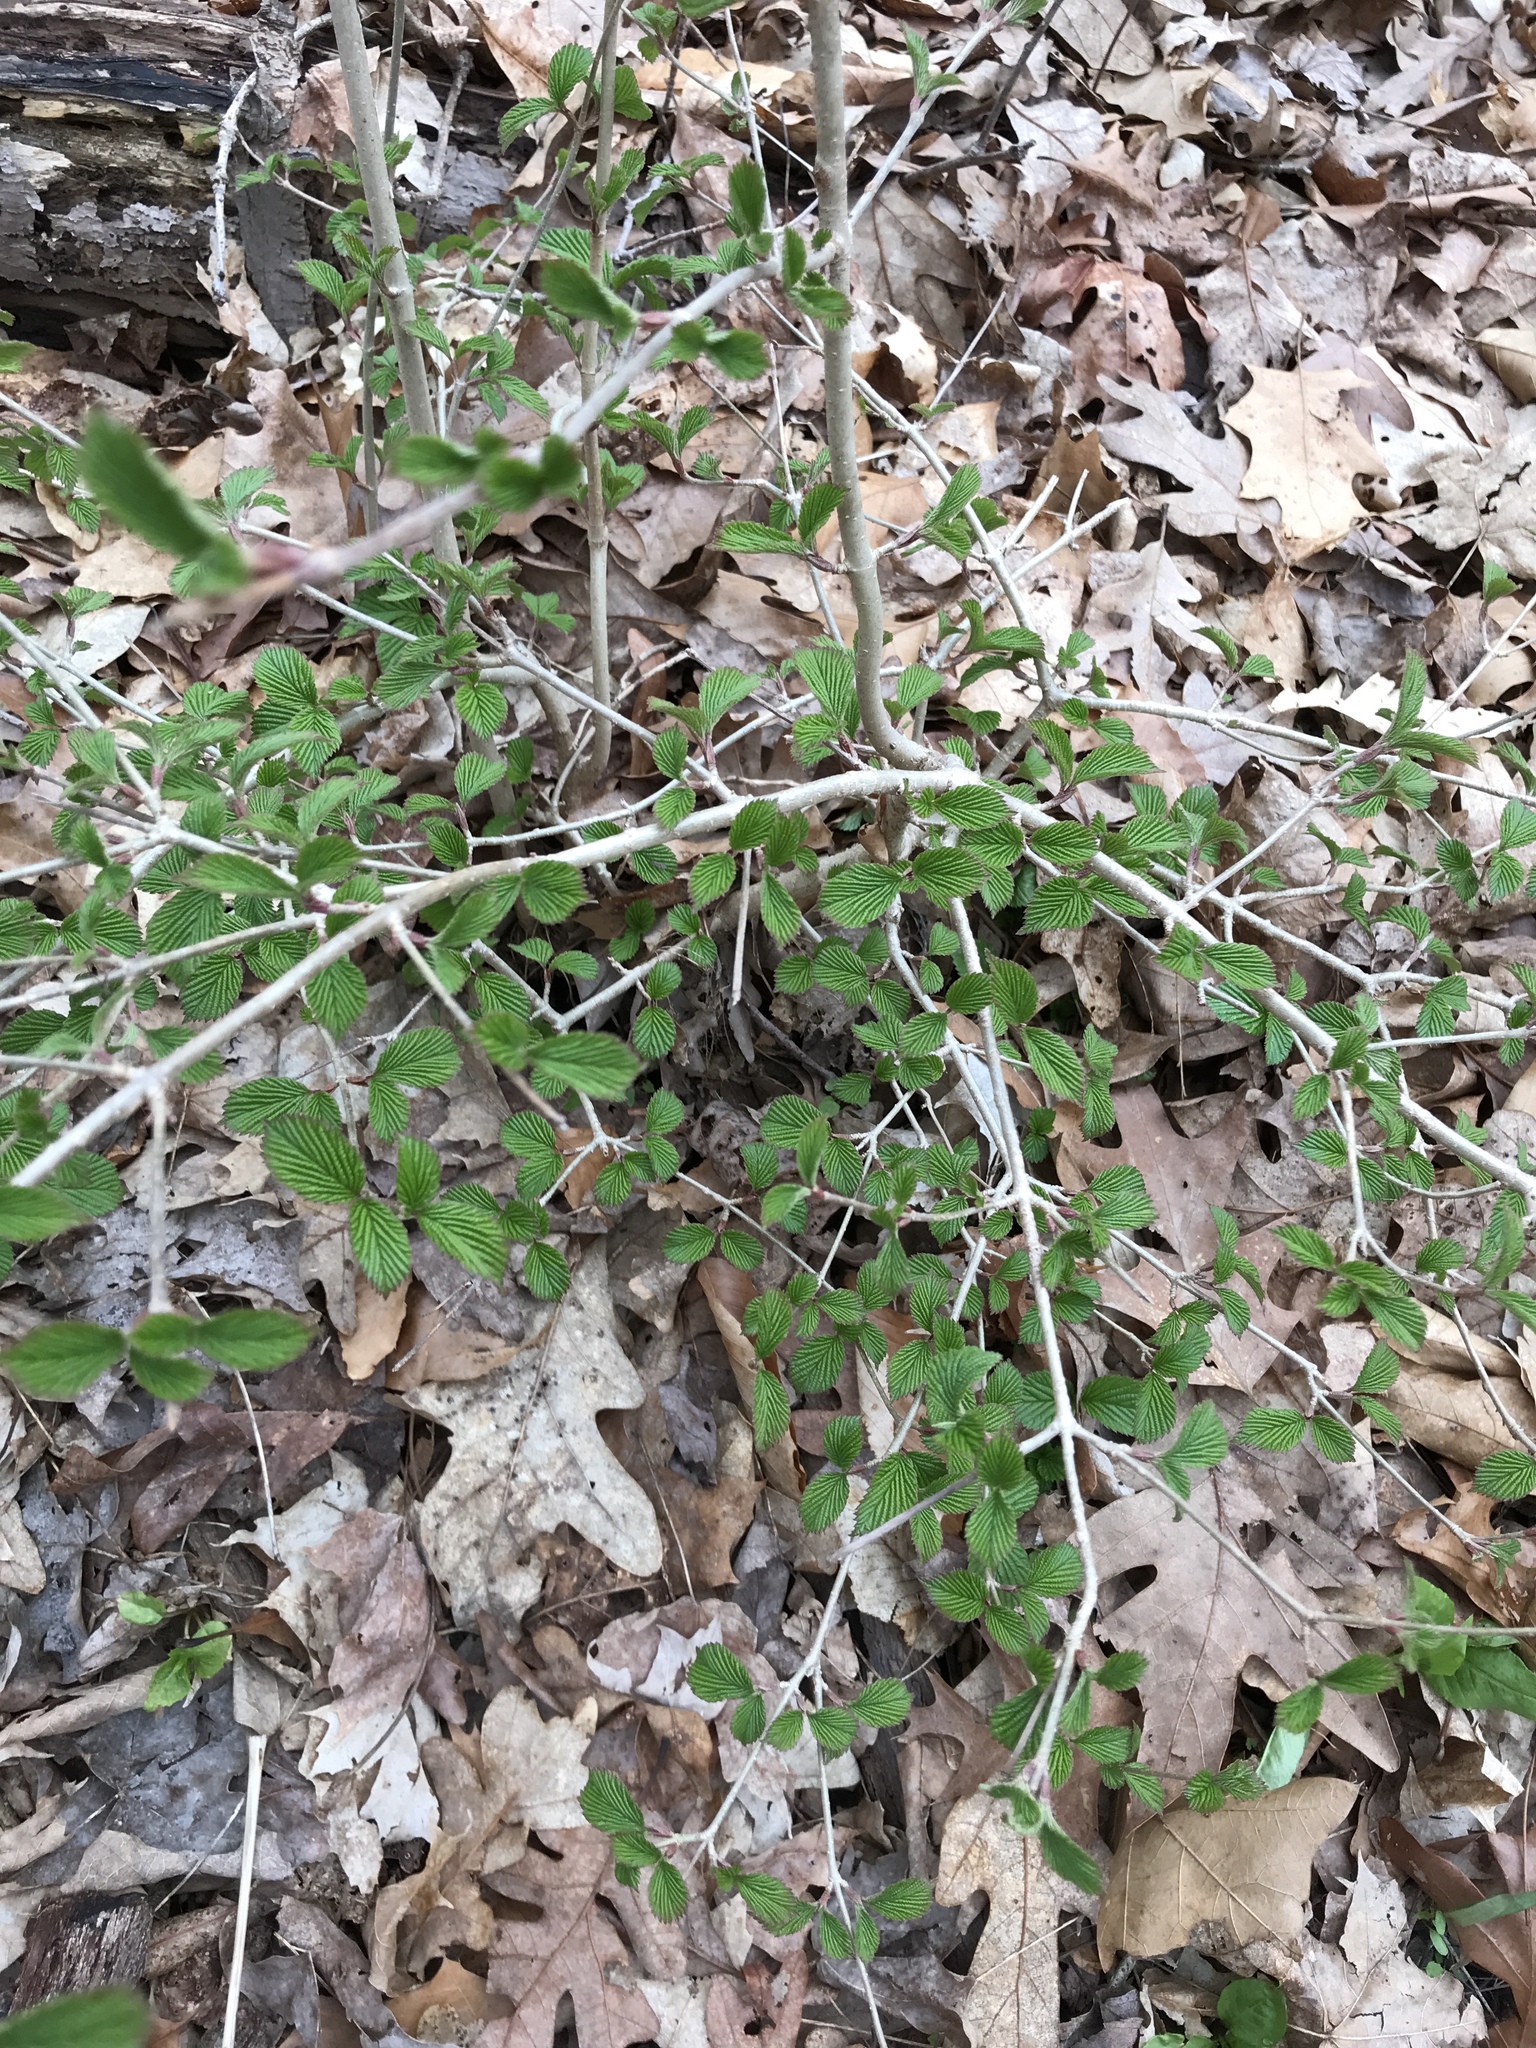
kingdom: Plantae
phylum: Tracheophyta
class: Magnoliopsida
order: Dipsacales
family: Viburnaceae
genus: Viburnum
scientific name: Viburnum plicatum
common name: Japanese snowball
